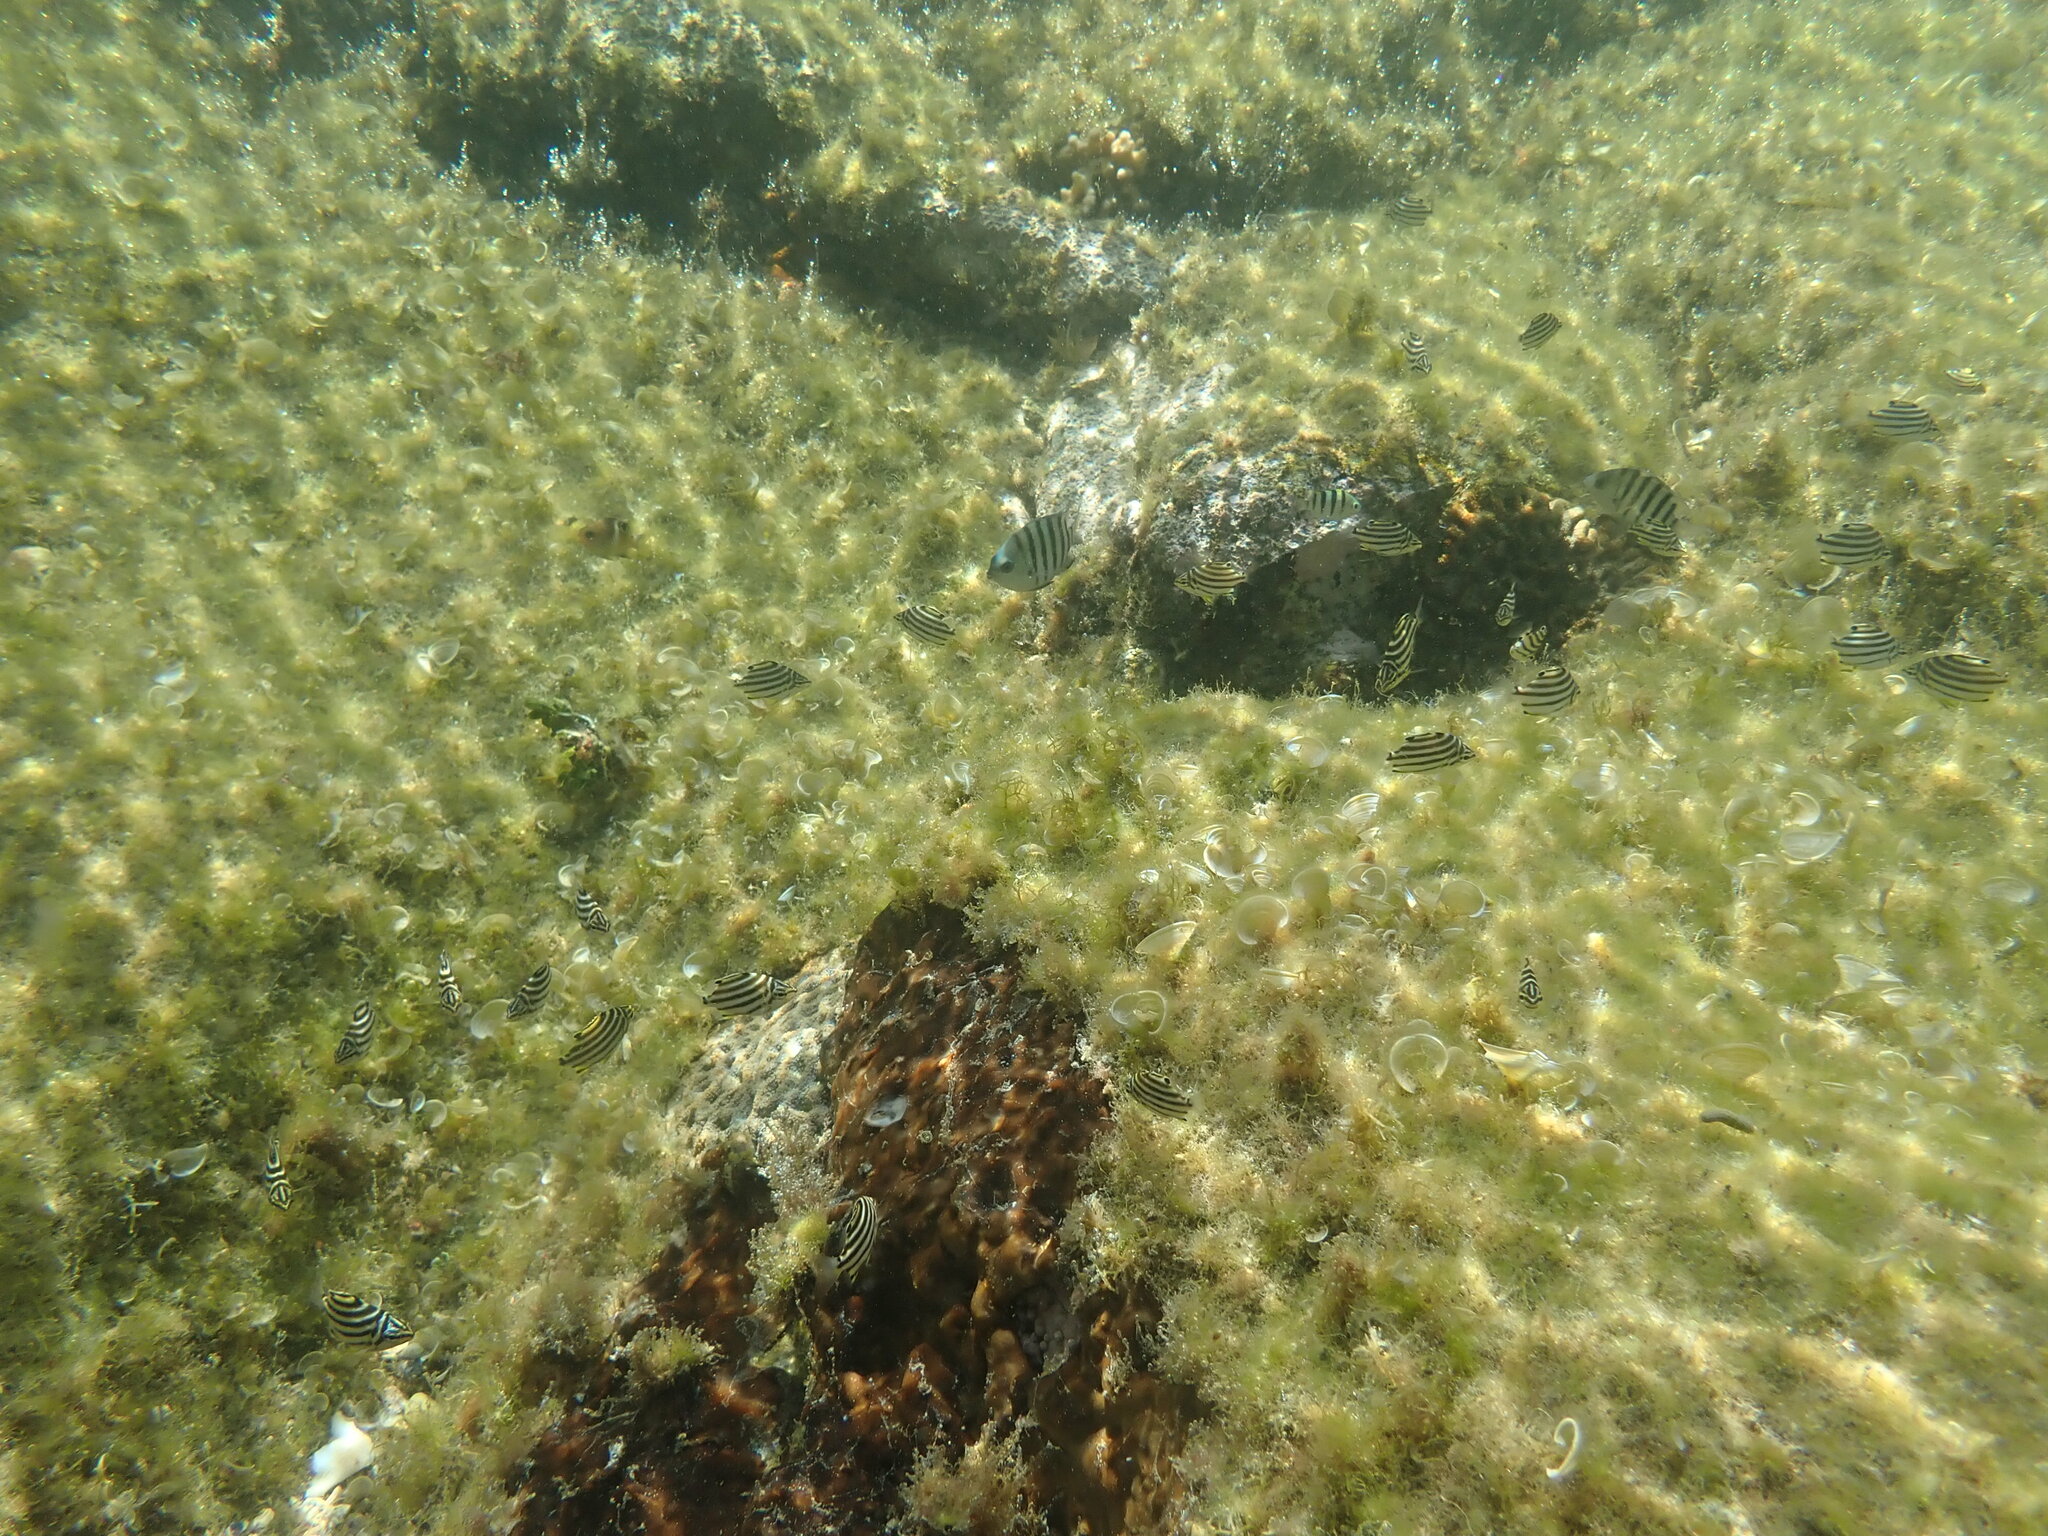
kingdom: Animalia
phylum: Chordata
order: Perciformes
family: Kyphosidae
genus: Microcanthus
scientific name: Microcanthus joyceae
